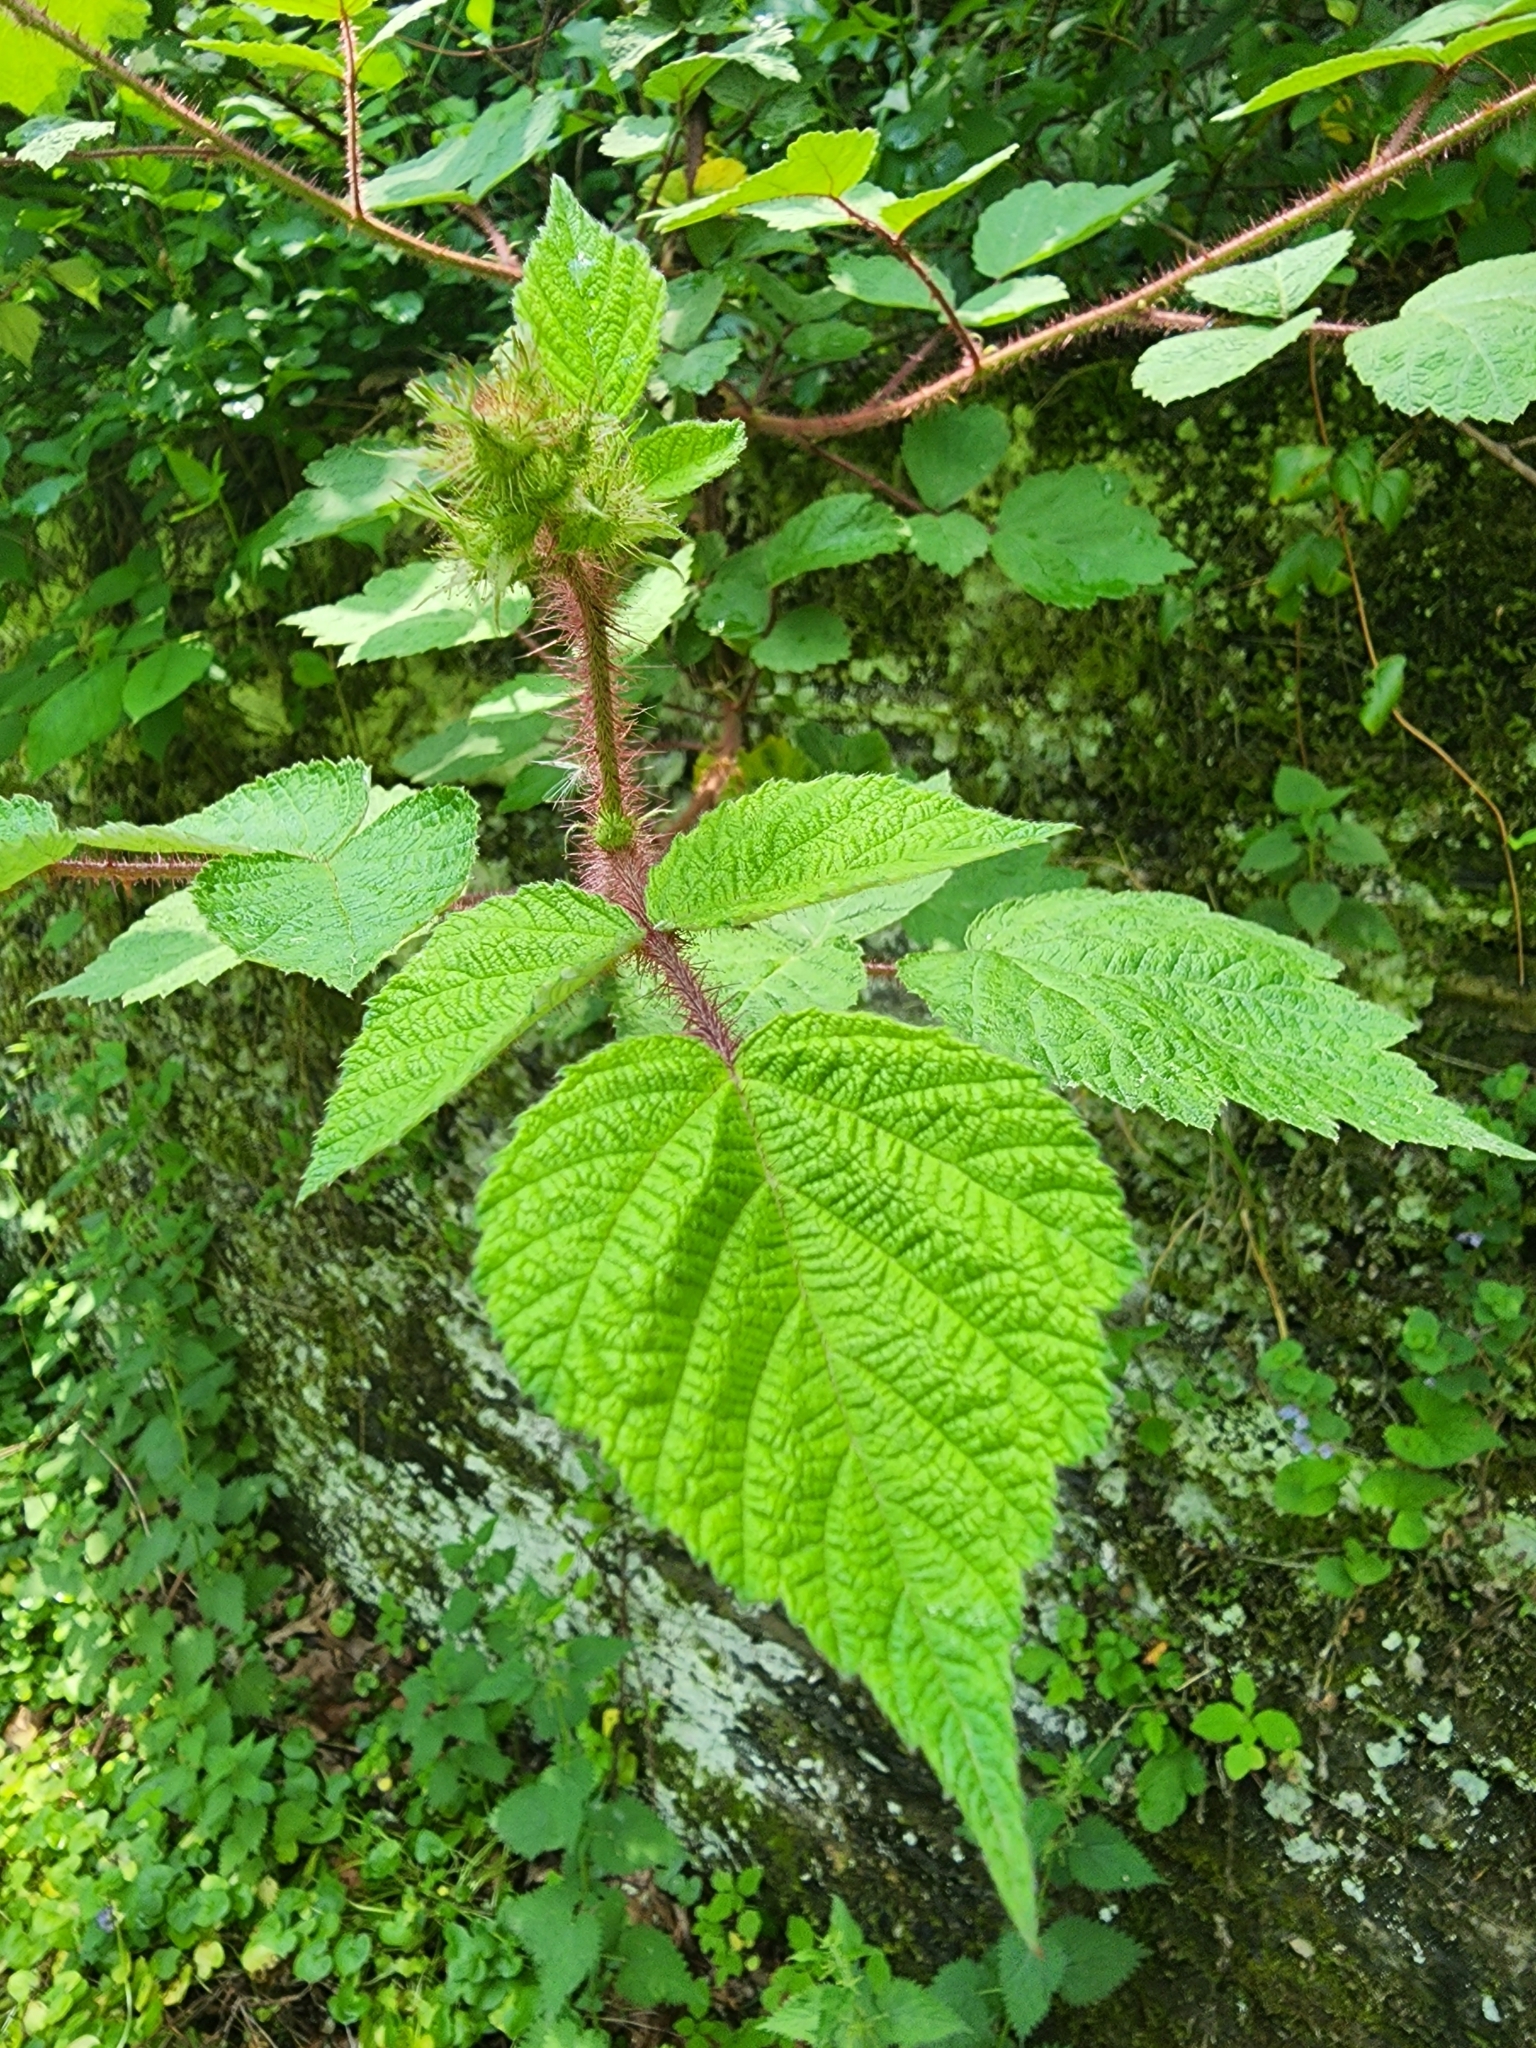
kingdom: Plantae
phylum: Tracheophyta
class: Magnoliopsida
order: Rosales
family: Rosaceae
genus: Rubus
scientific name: Rubus phoenicolasius
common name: Japanese wineberry
